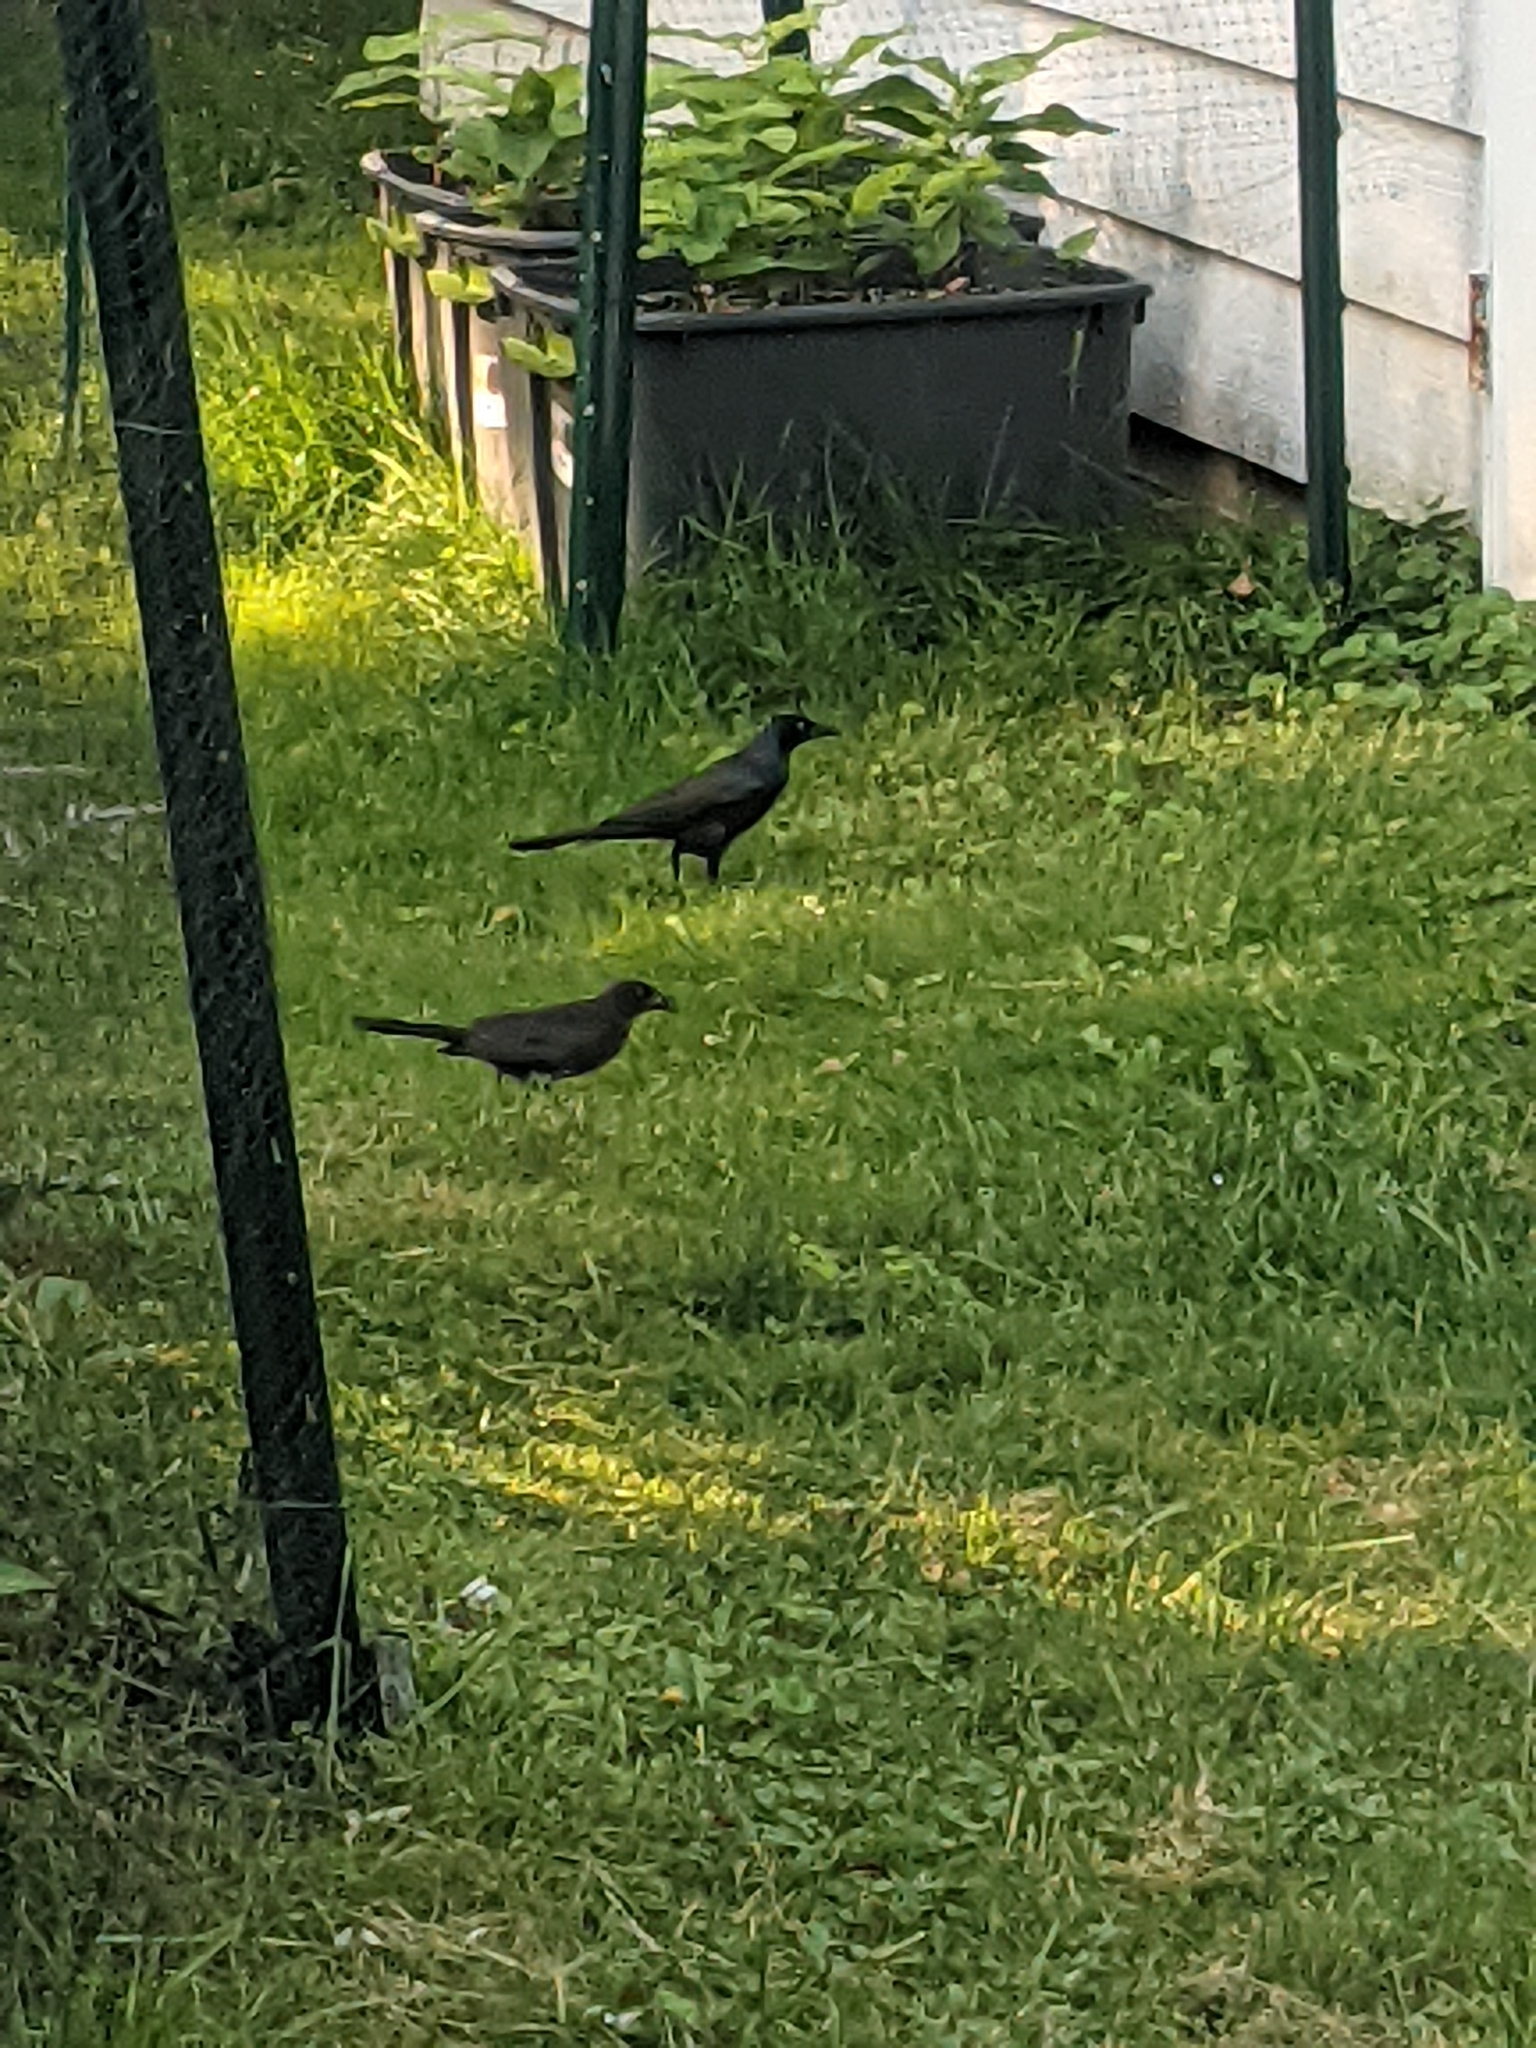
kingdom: Animalia
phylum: Chordata
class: Aves
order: Passeriformes
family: Icteridae
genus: Quiscalus
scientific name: Quiscalus quiscula
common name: Common grackle
